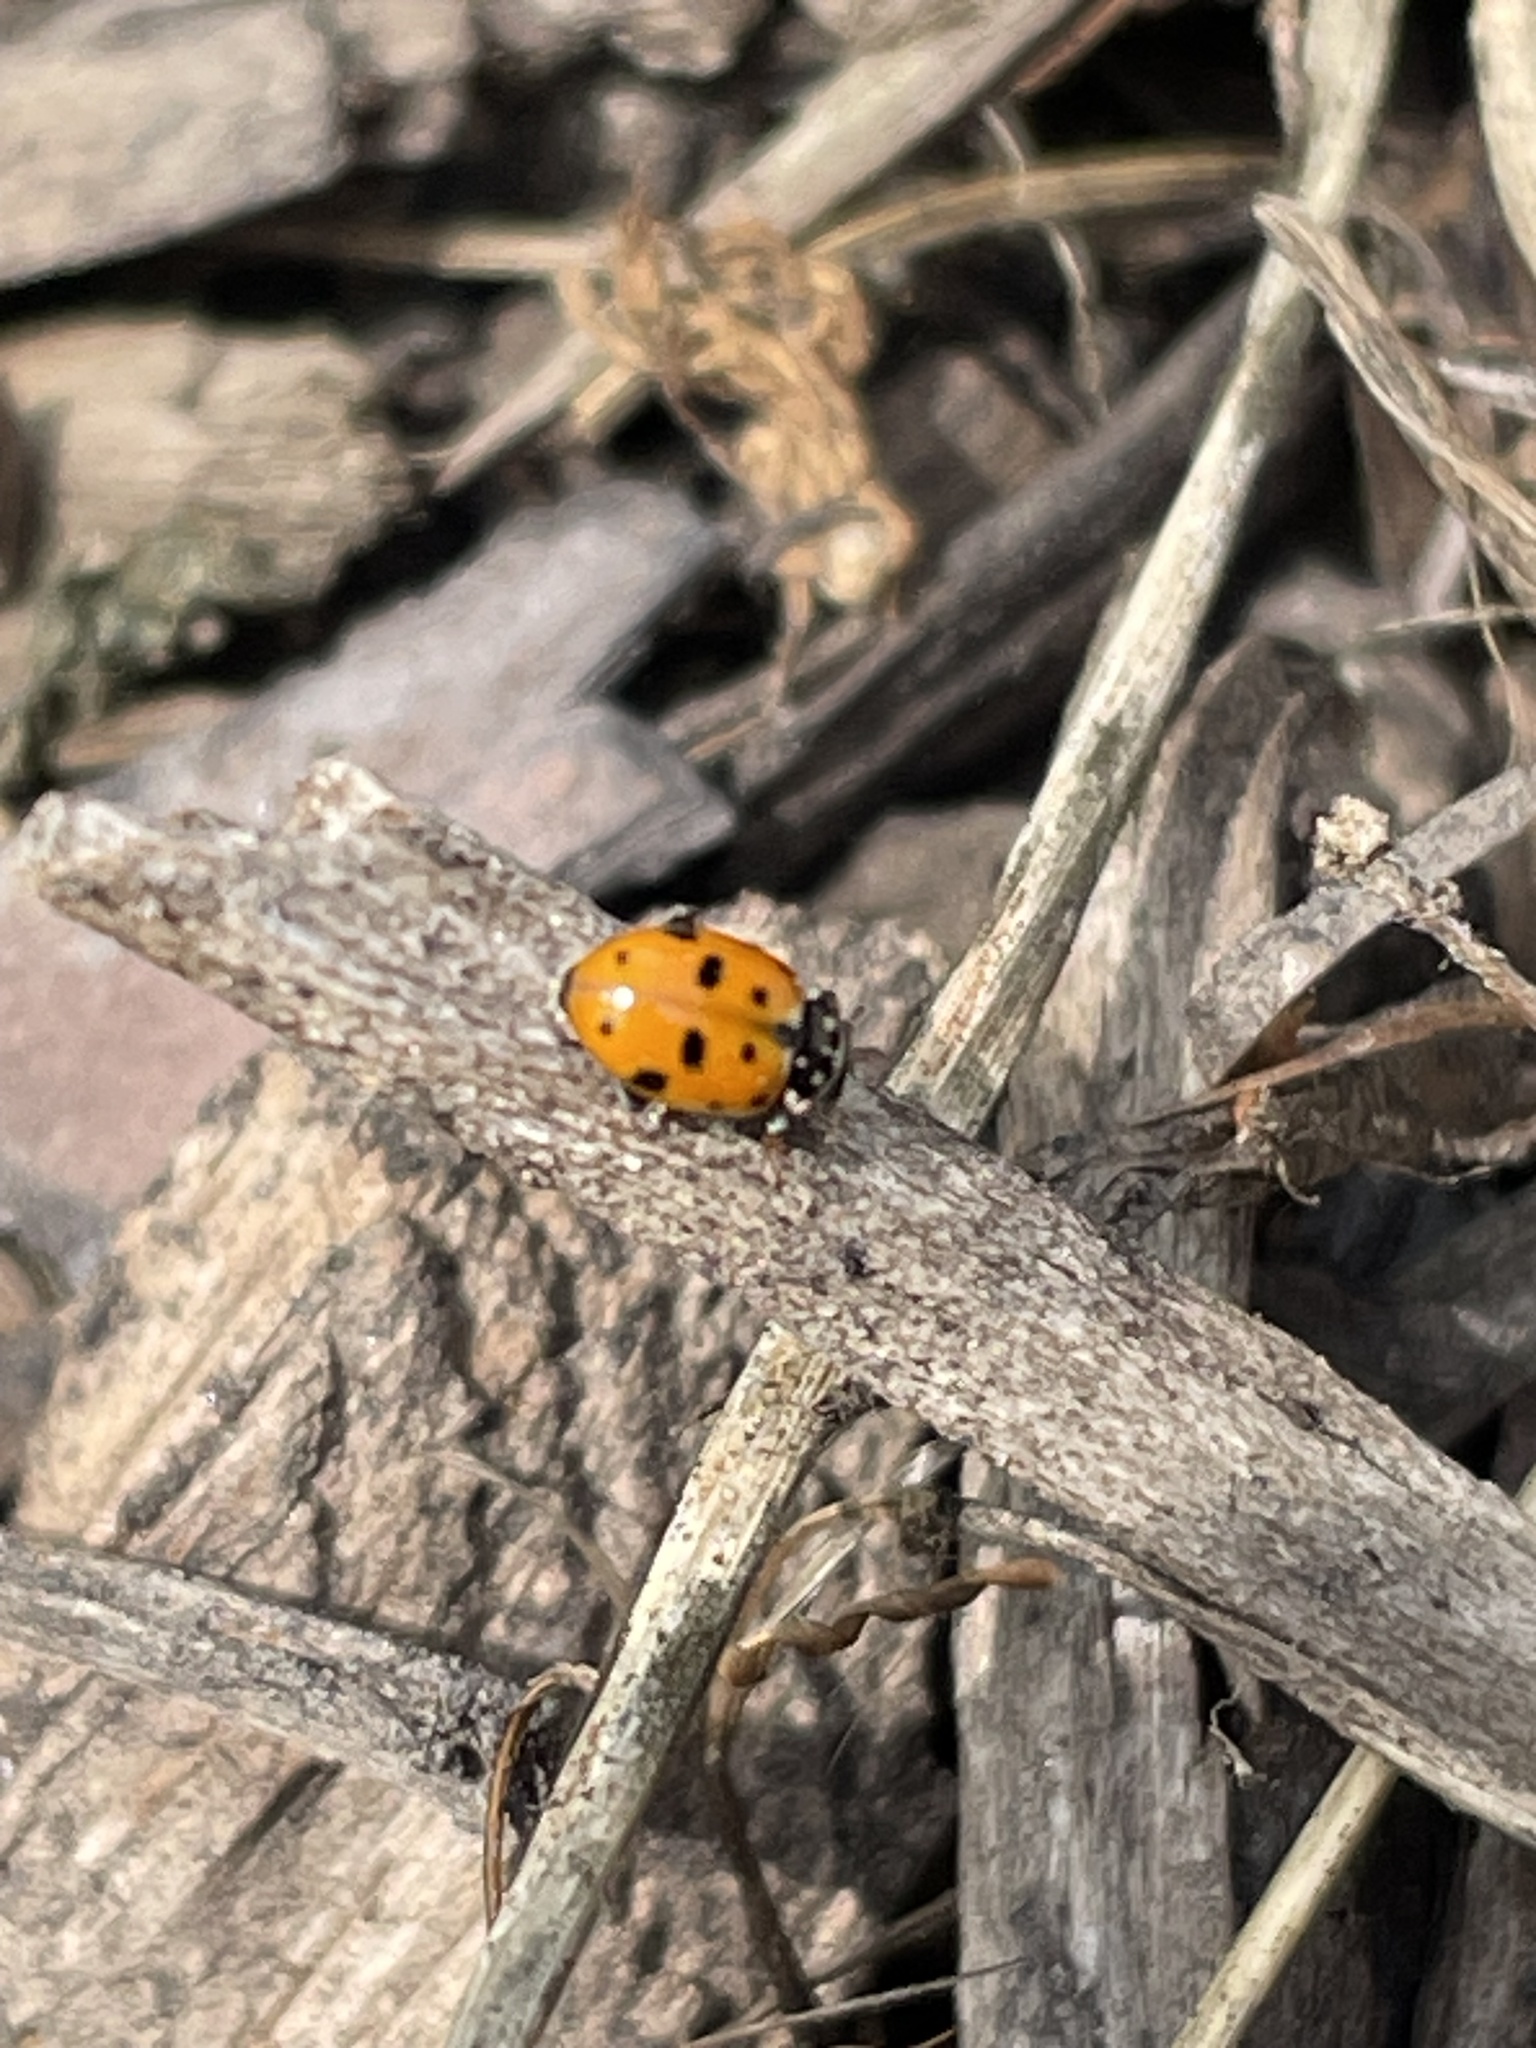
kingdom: Animalia
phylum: Arthropoda
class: Insecta
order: Coleoptera
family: Coccinellidae
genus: Hippodamia
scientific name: Hippodamia variegata
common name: Ladybird beetle
